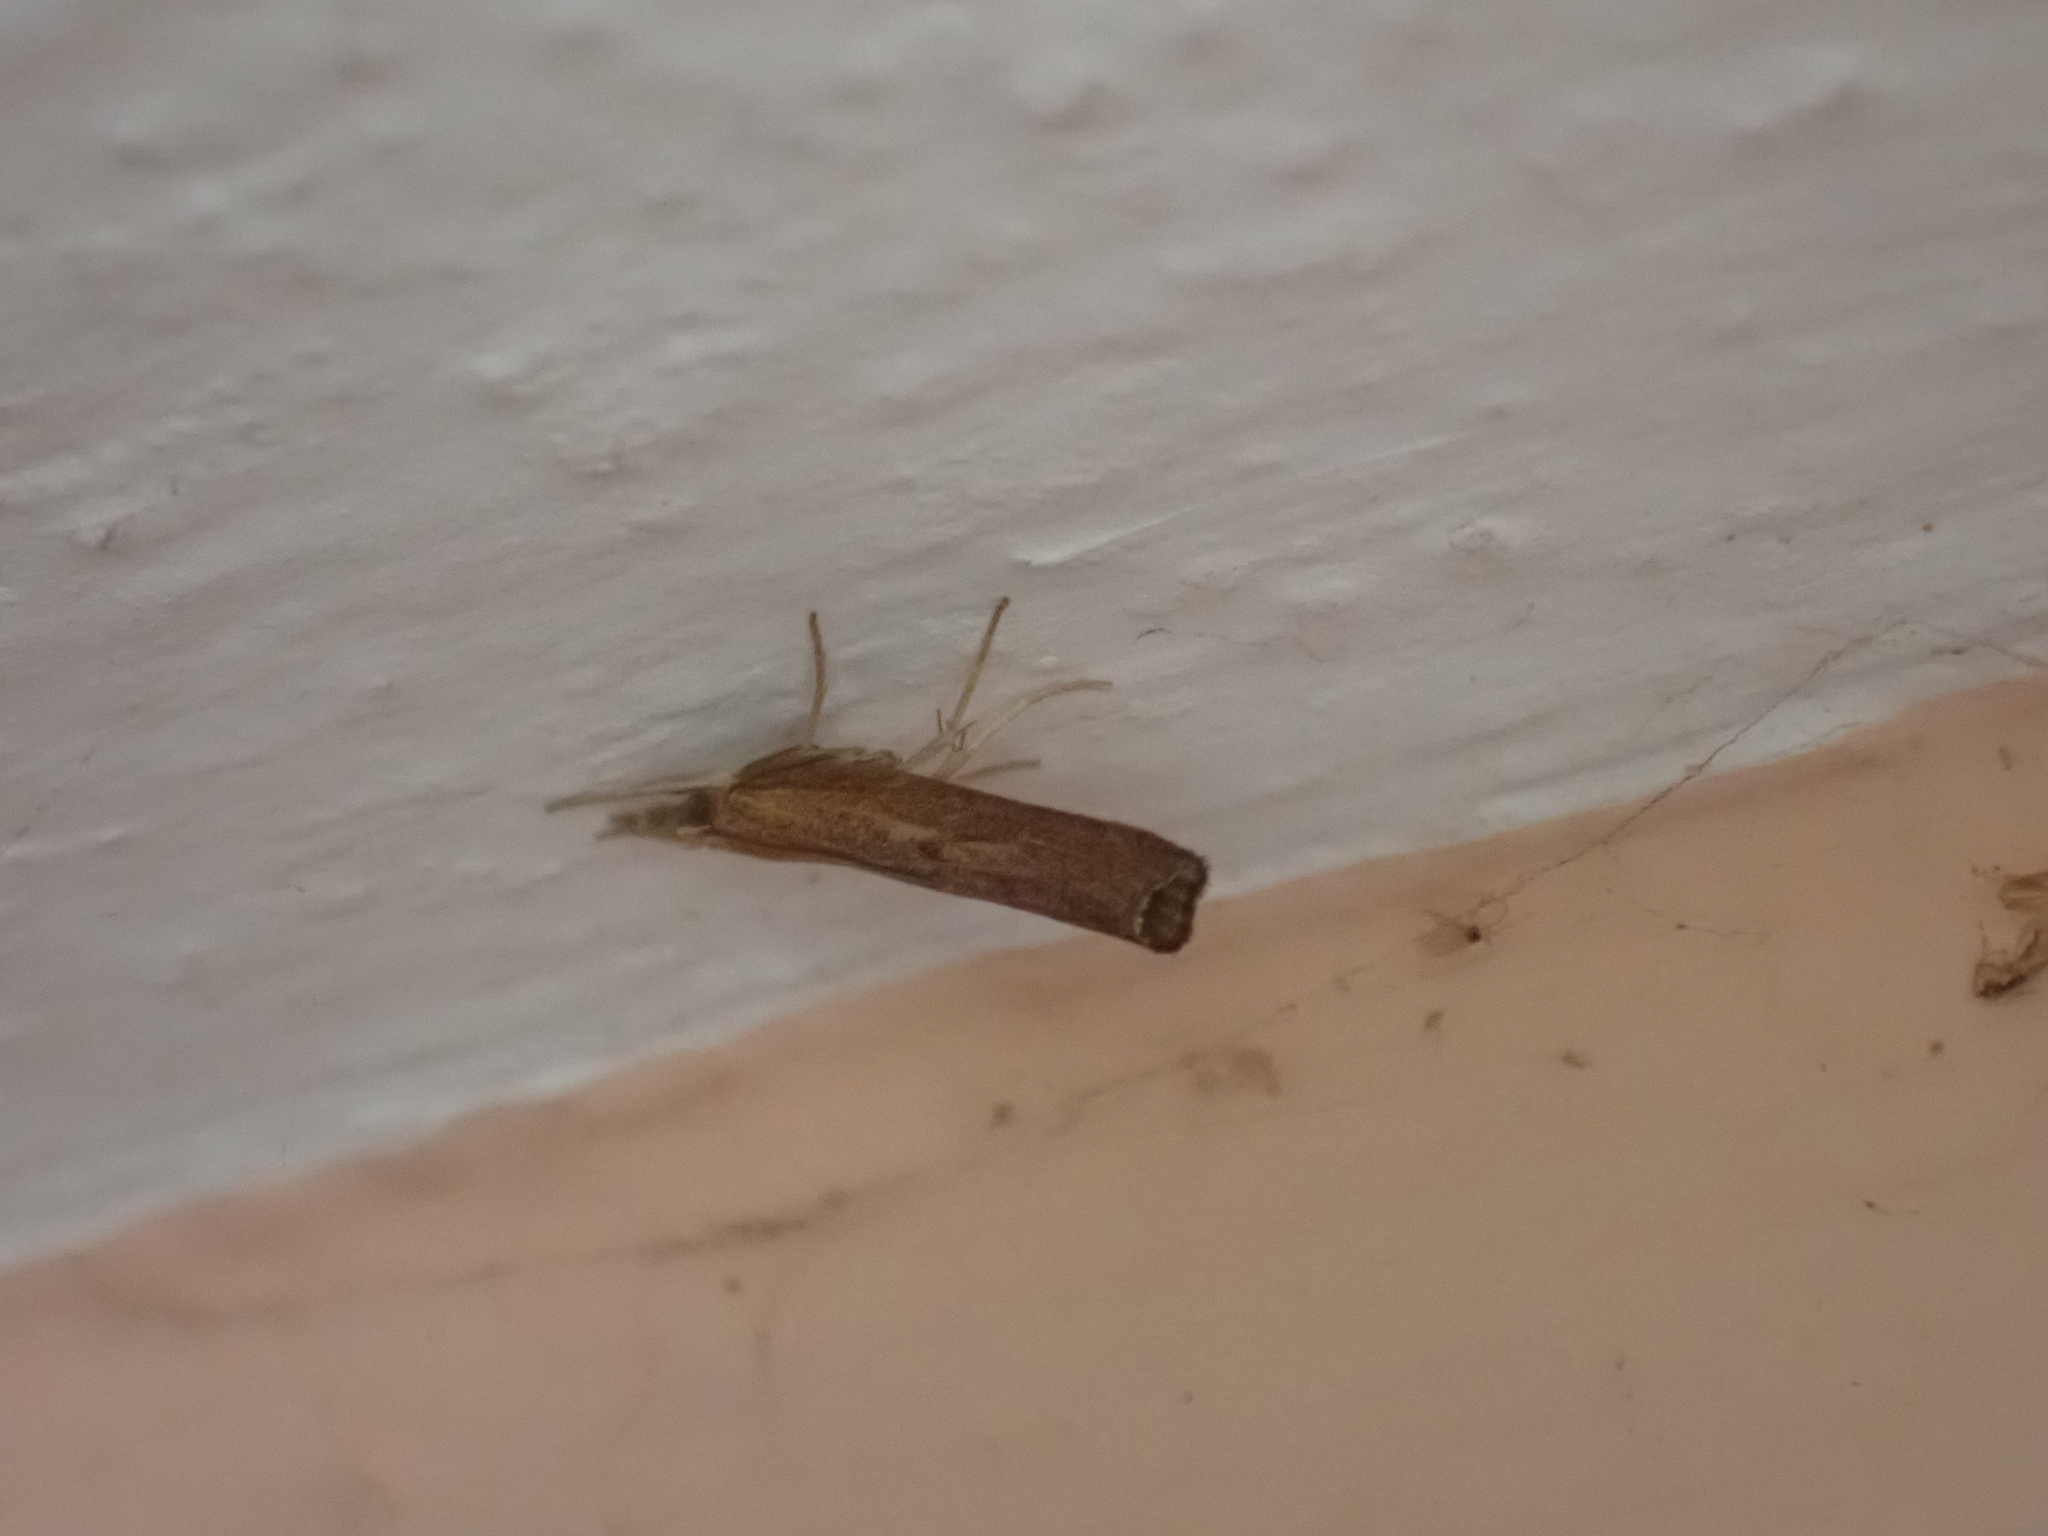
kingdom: Animalia
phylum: Arthropoda
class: Insecta
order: Lepidoptera
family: Crambidae
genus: Pediasia
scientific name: Pediasia contaminella
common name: Waste grass-veneer
